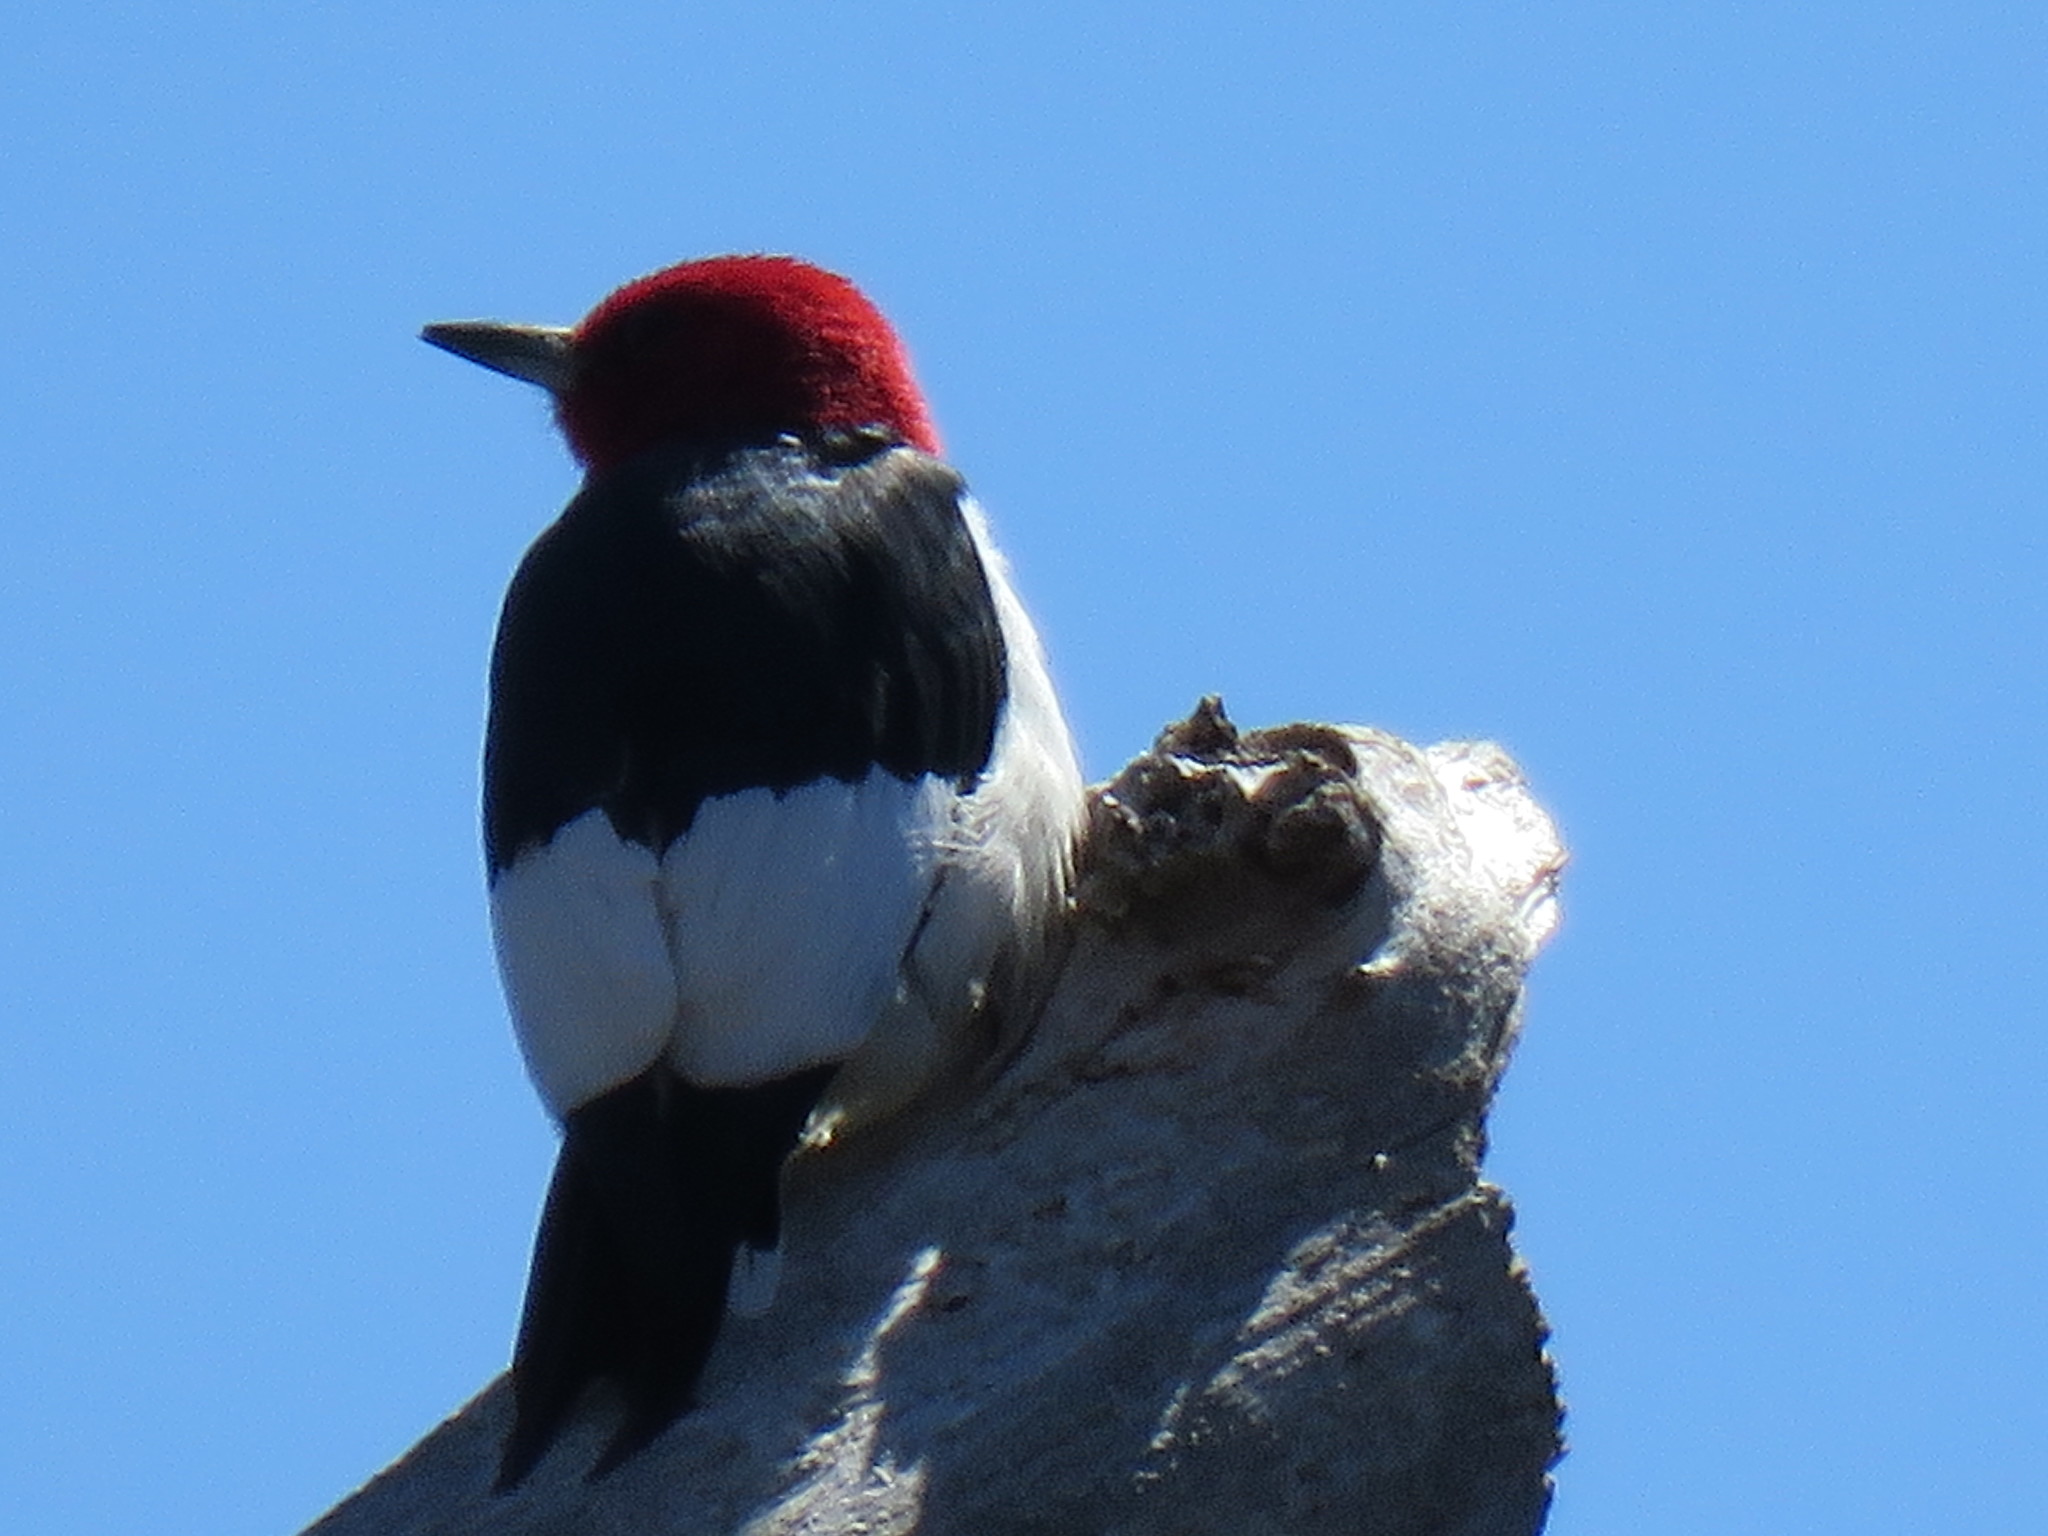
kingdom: Animalia
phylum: Chordata
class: Aves
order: Piciformes
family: Picidae
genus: Melanerpes
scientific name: Melanerpes erythrocephalus
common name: Red-headed woodpecker
